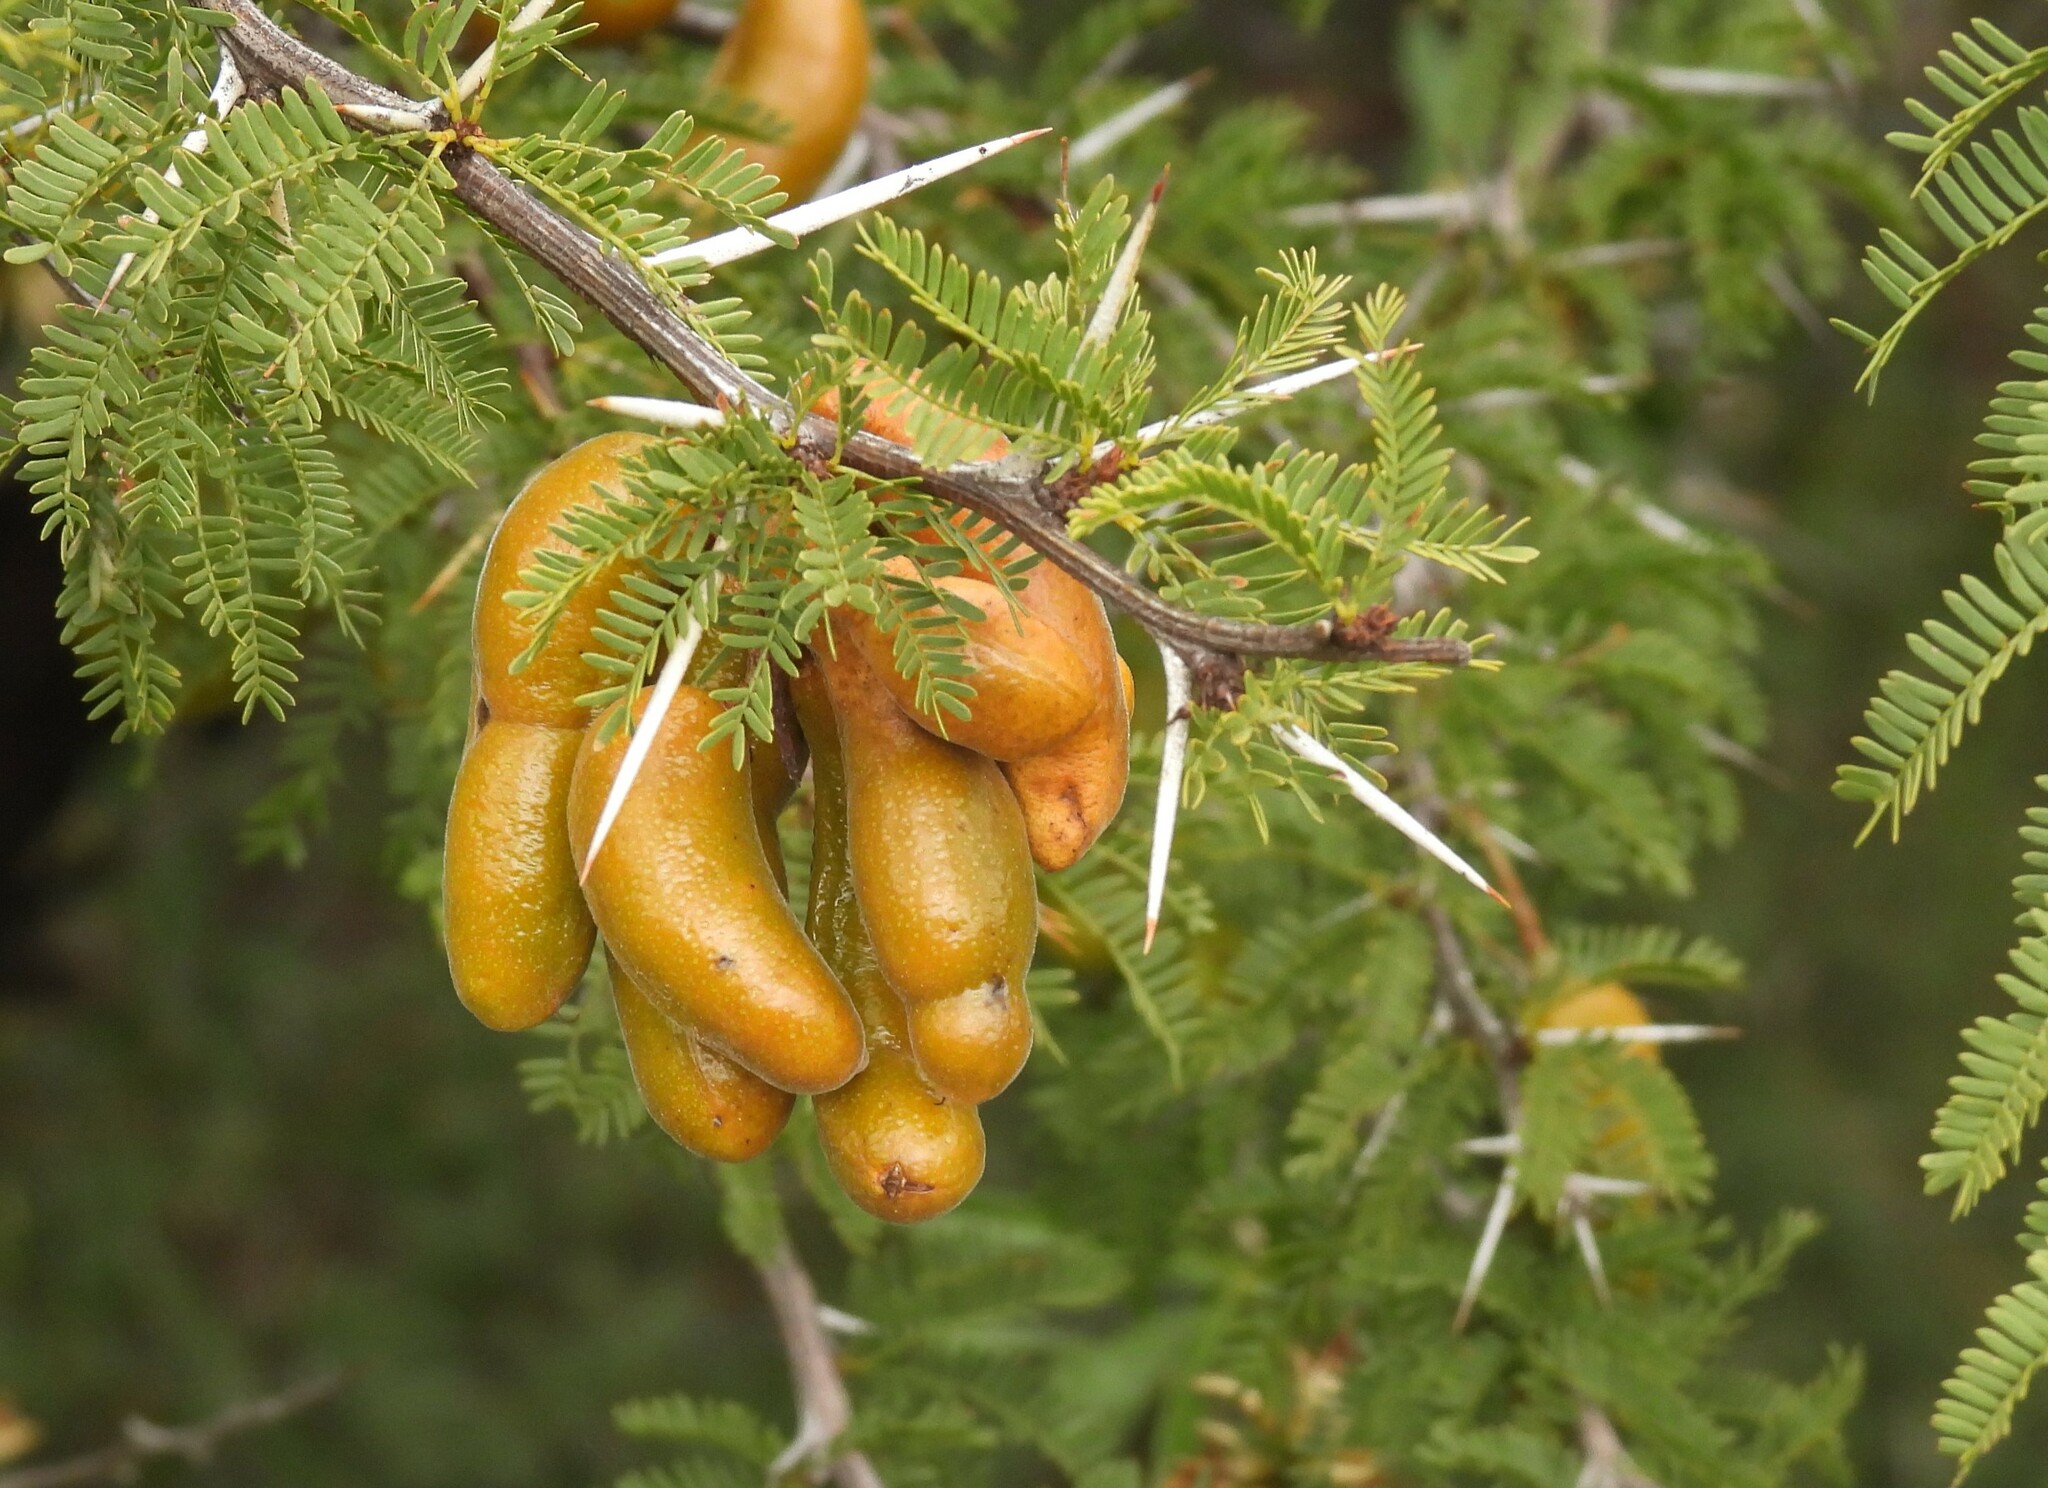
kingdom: Plantae
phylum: Tracheophyta
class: Magnoliopsida
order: Fabales
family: Fabaceae
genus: Prosopis
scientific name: Prosopis ferox
